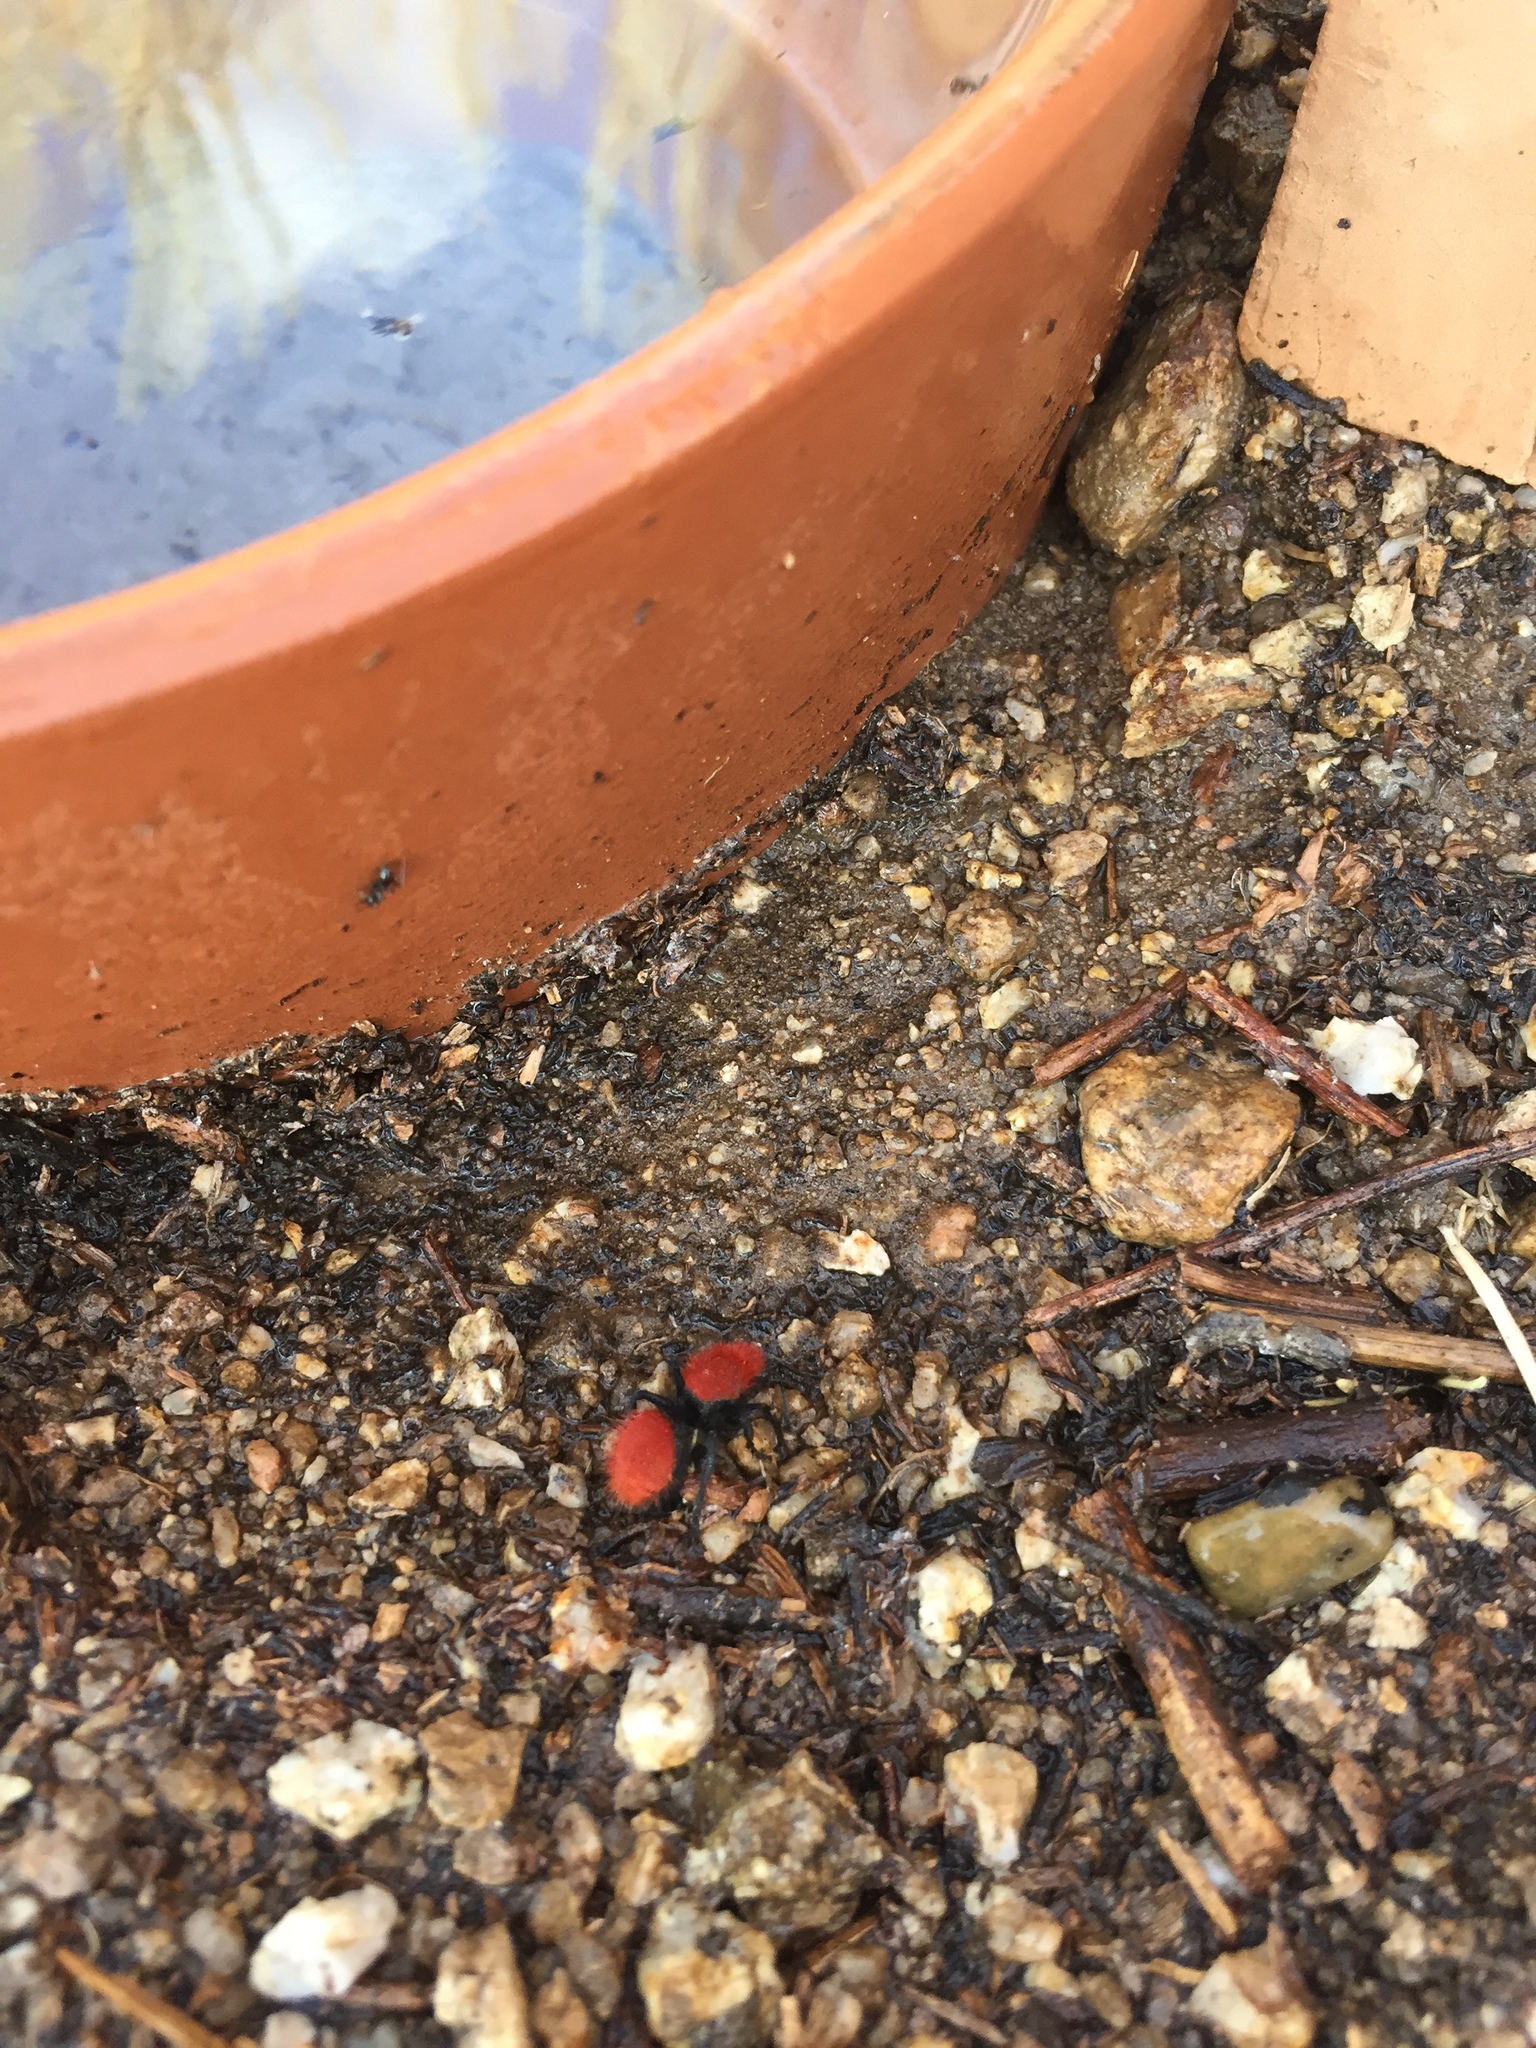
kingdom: Animalia
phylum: Arthropoda
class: Insecta
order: Hymenoptera
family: Mutillidae
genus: Dasymutilla
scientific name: Dasymutilla vestita
